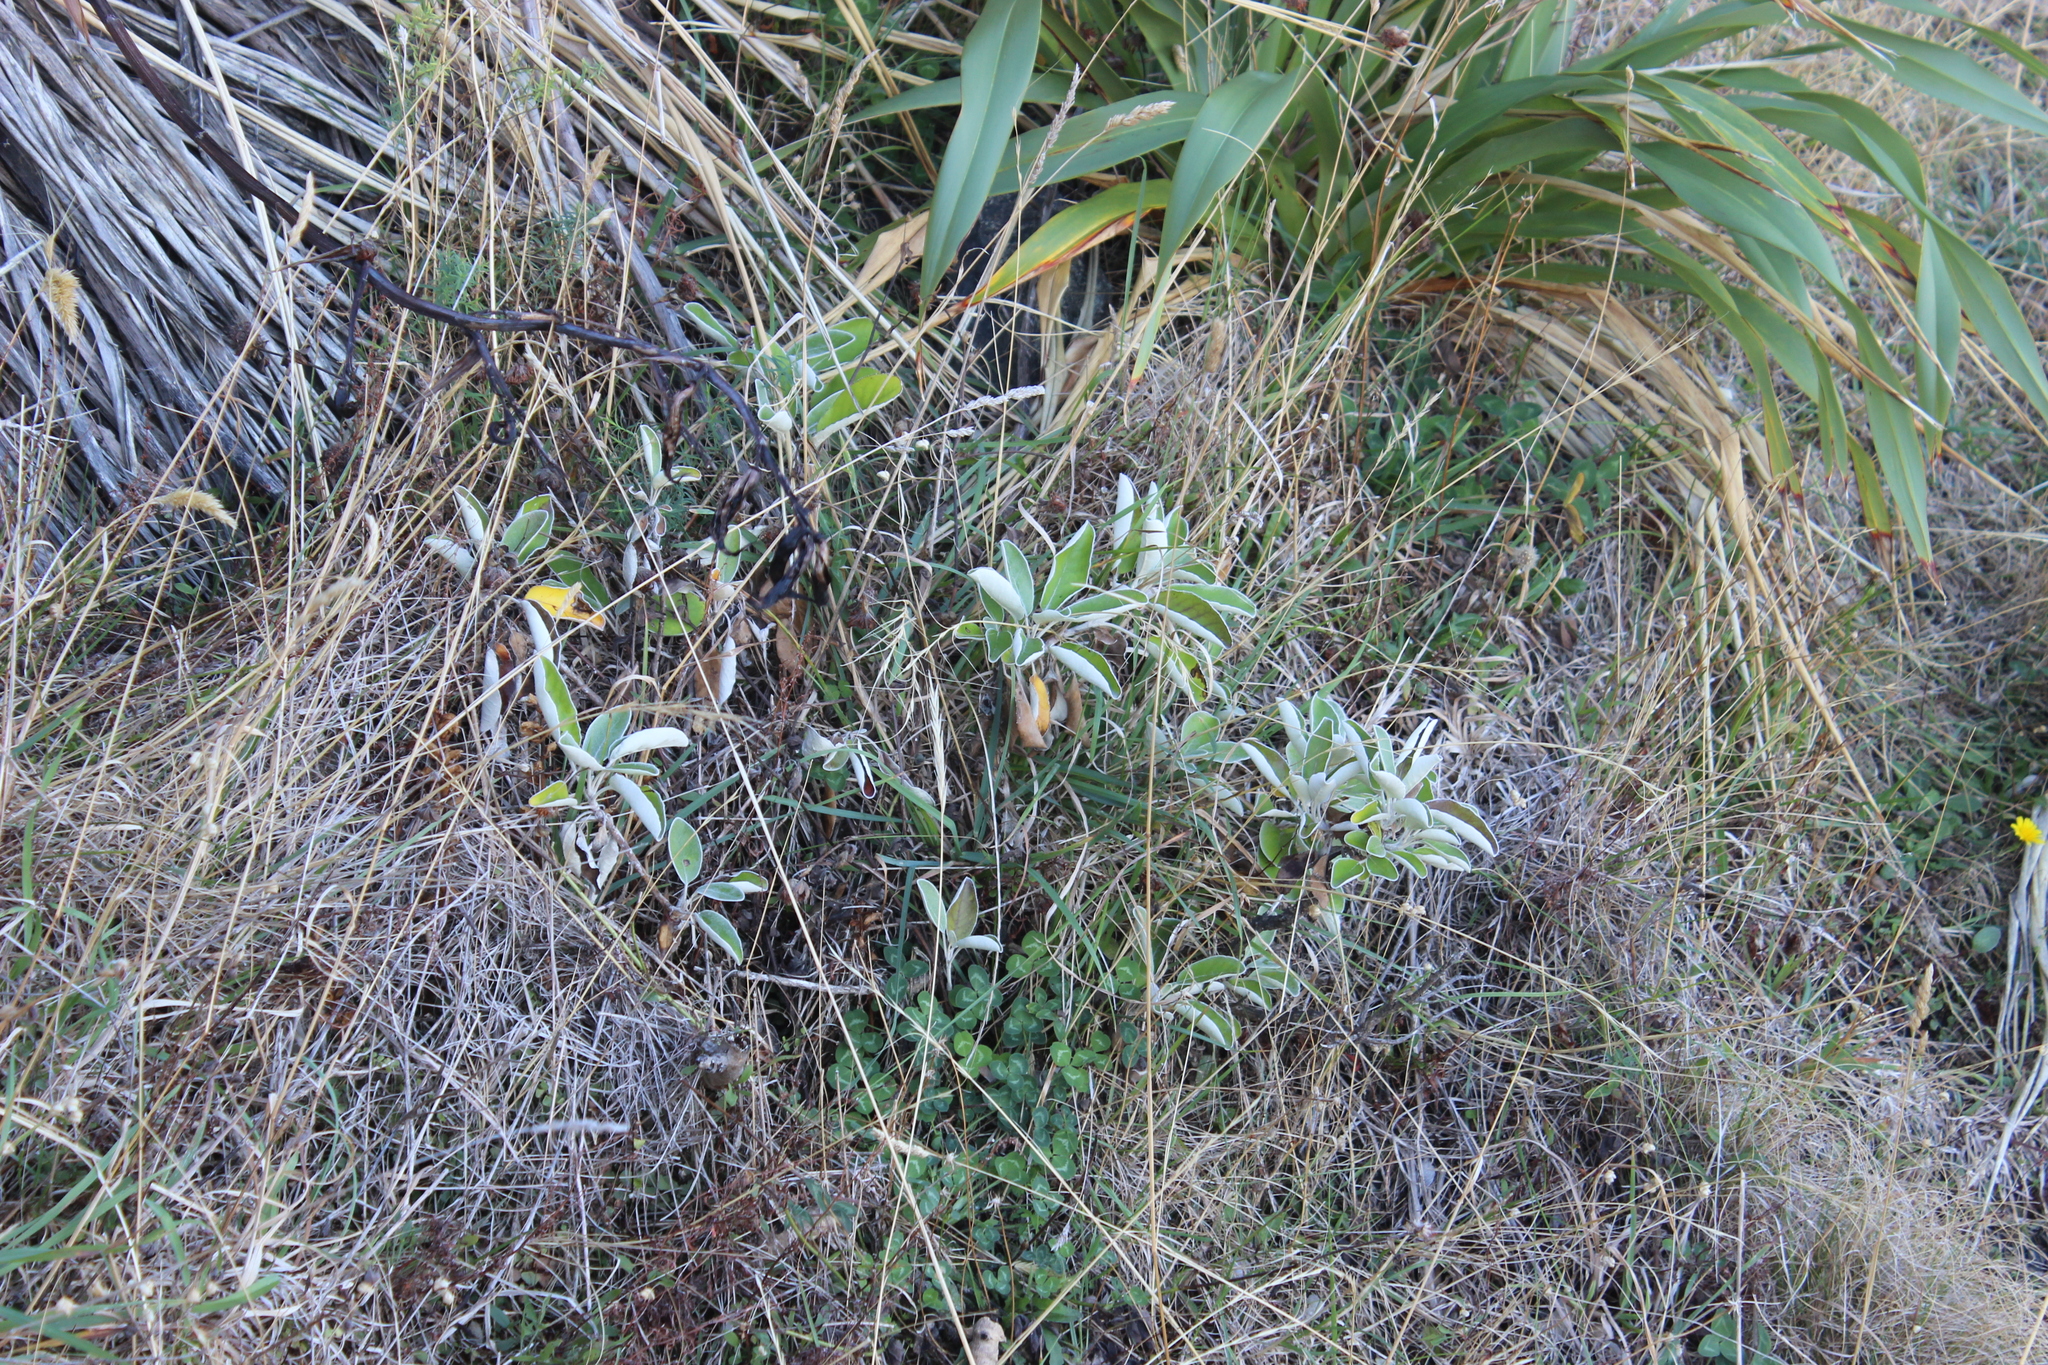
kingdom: Plantae
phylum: Tracheophyta
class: Magnoliopsida
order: Asterales
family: Asteraceae
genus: Brachyglottis
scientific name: Brachyglottis greyi
